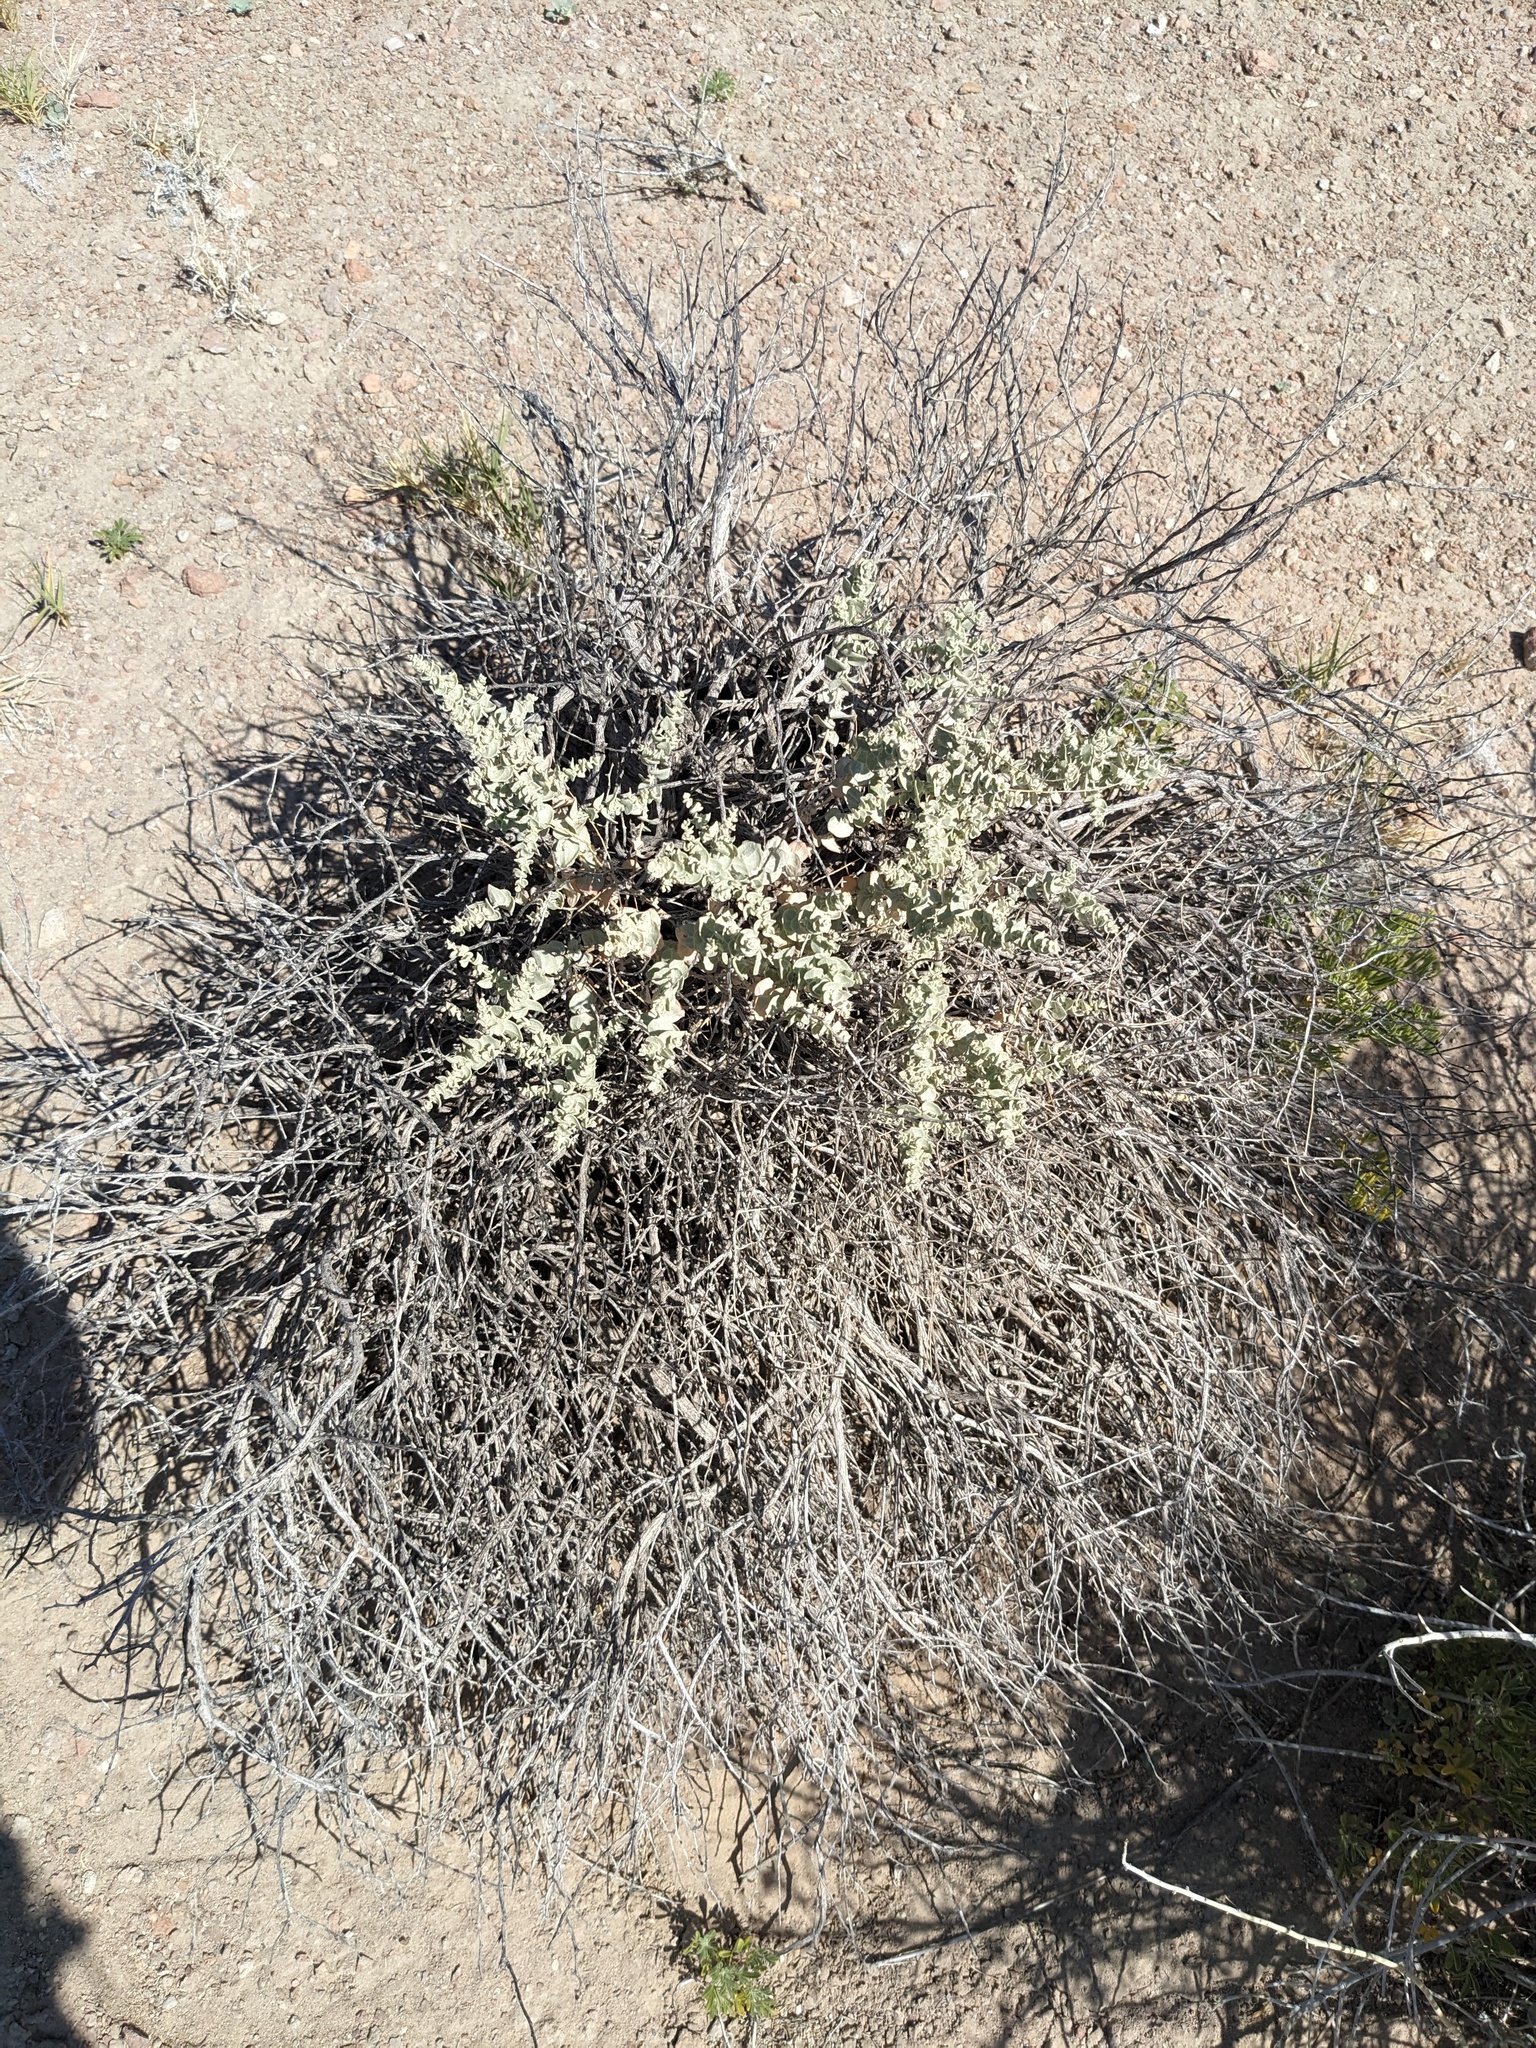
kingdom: Plantae
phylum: Tracheophyta
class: Magnoliopsida
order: Caryophyllales
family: Amaranthaceae
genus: Atriplex
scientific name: Atriplex parryi
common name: Parry's saltbush
